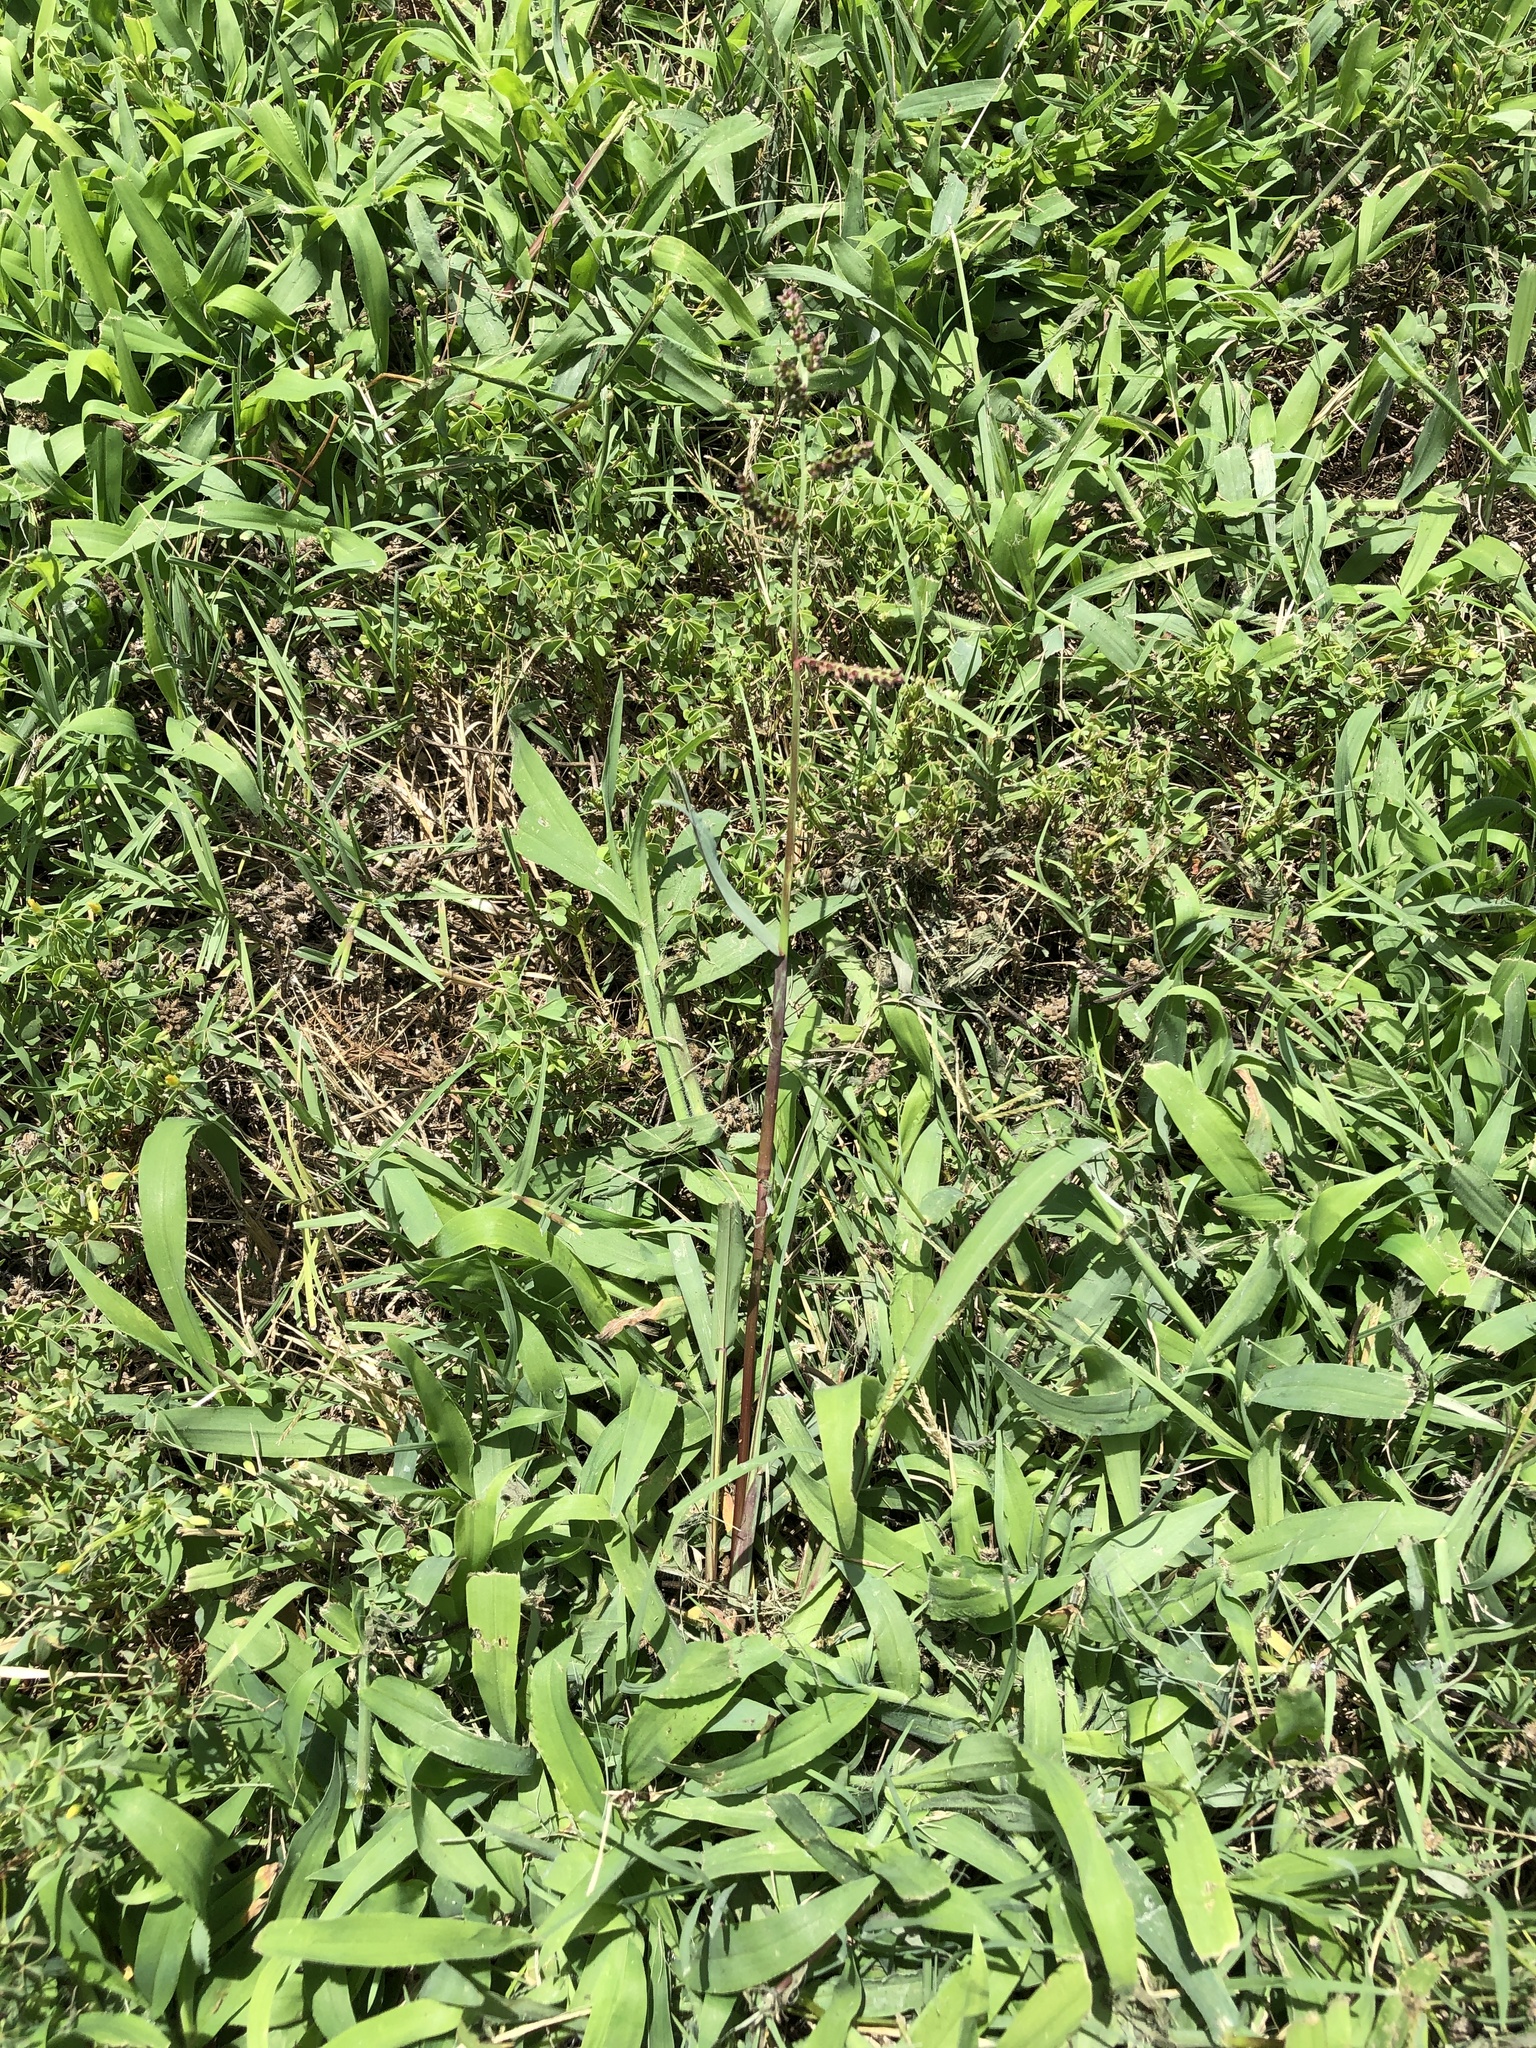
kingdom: Plantae
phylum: Tracheophyta
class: Liliopsida
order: Poales
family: Poaceae
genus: Echinochloa
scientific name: Echinochloa colonum
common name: Jungle rice
